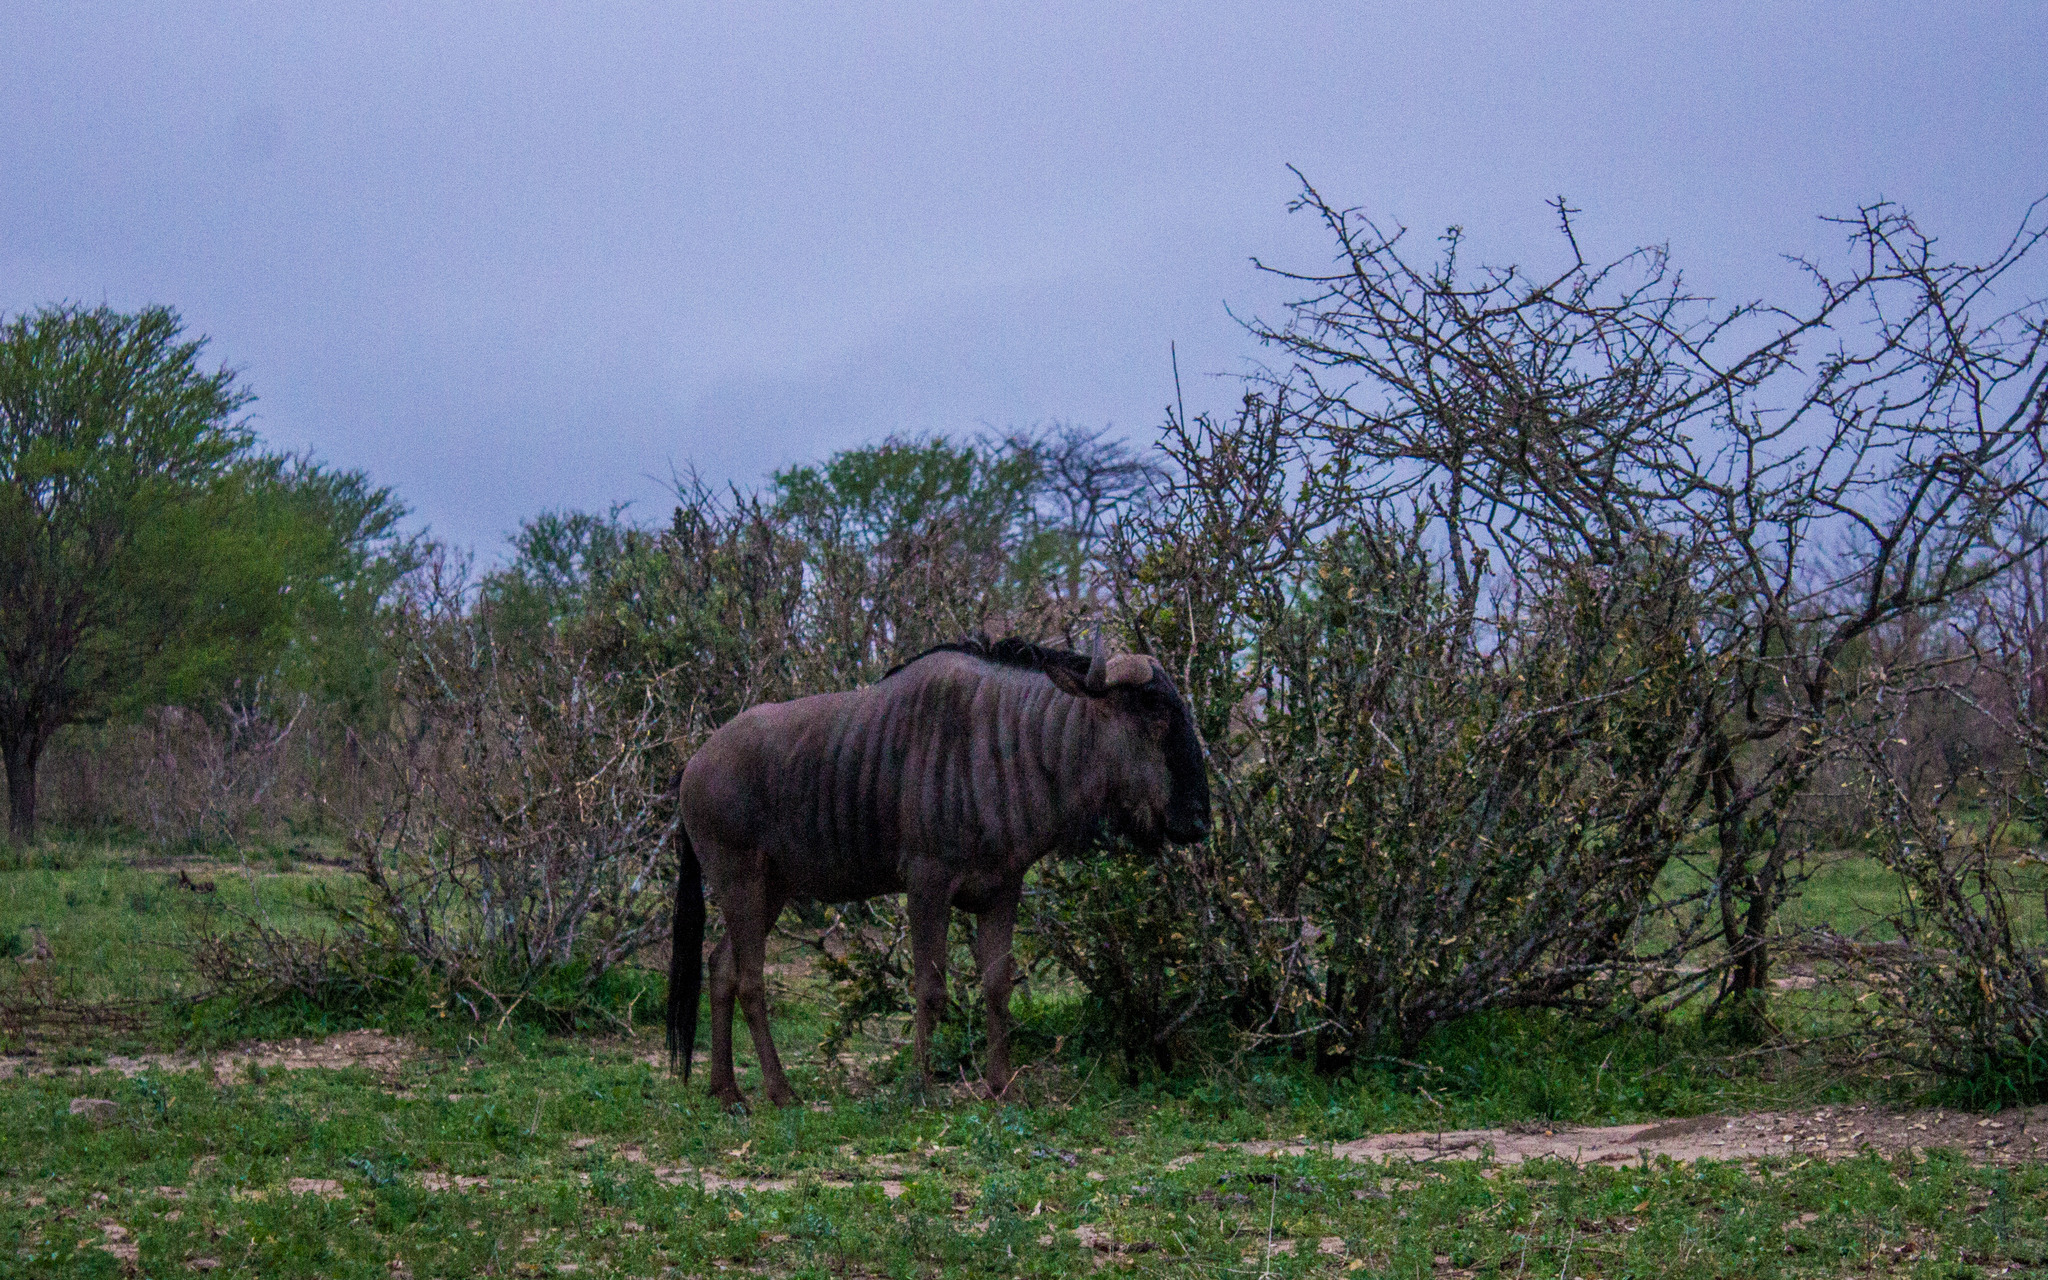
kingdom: Animalia
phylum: Chordata
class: Mammalia
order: Artiodactyla
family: Bovidae
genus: Connochaetes
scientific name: Connochaetes taurinus
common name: Blue wildebeest
